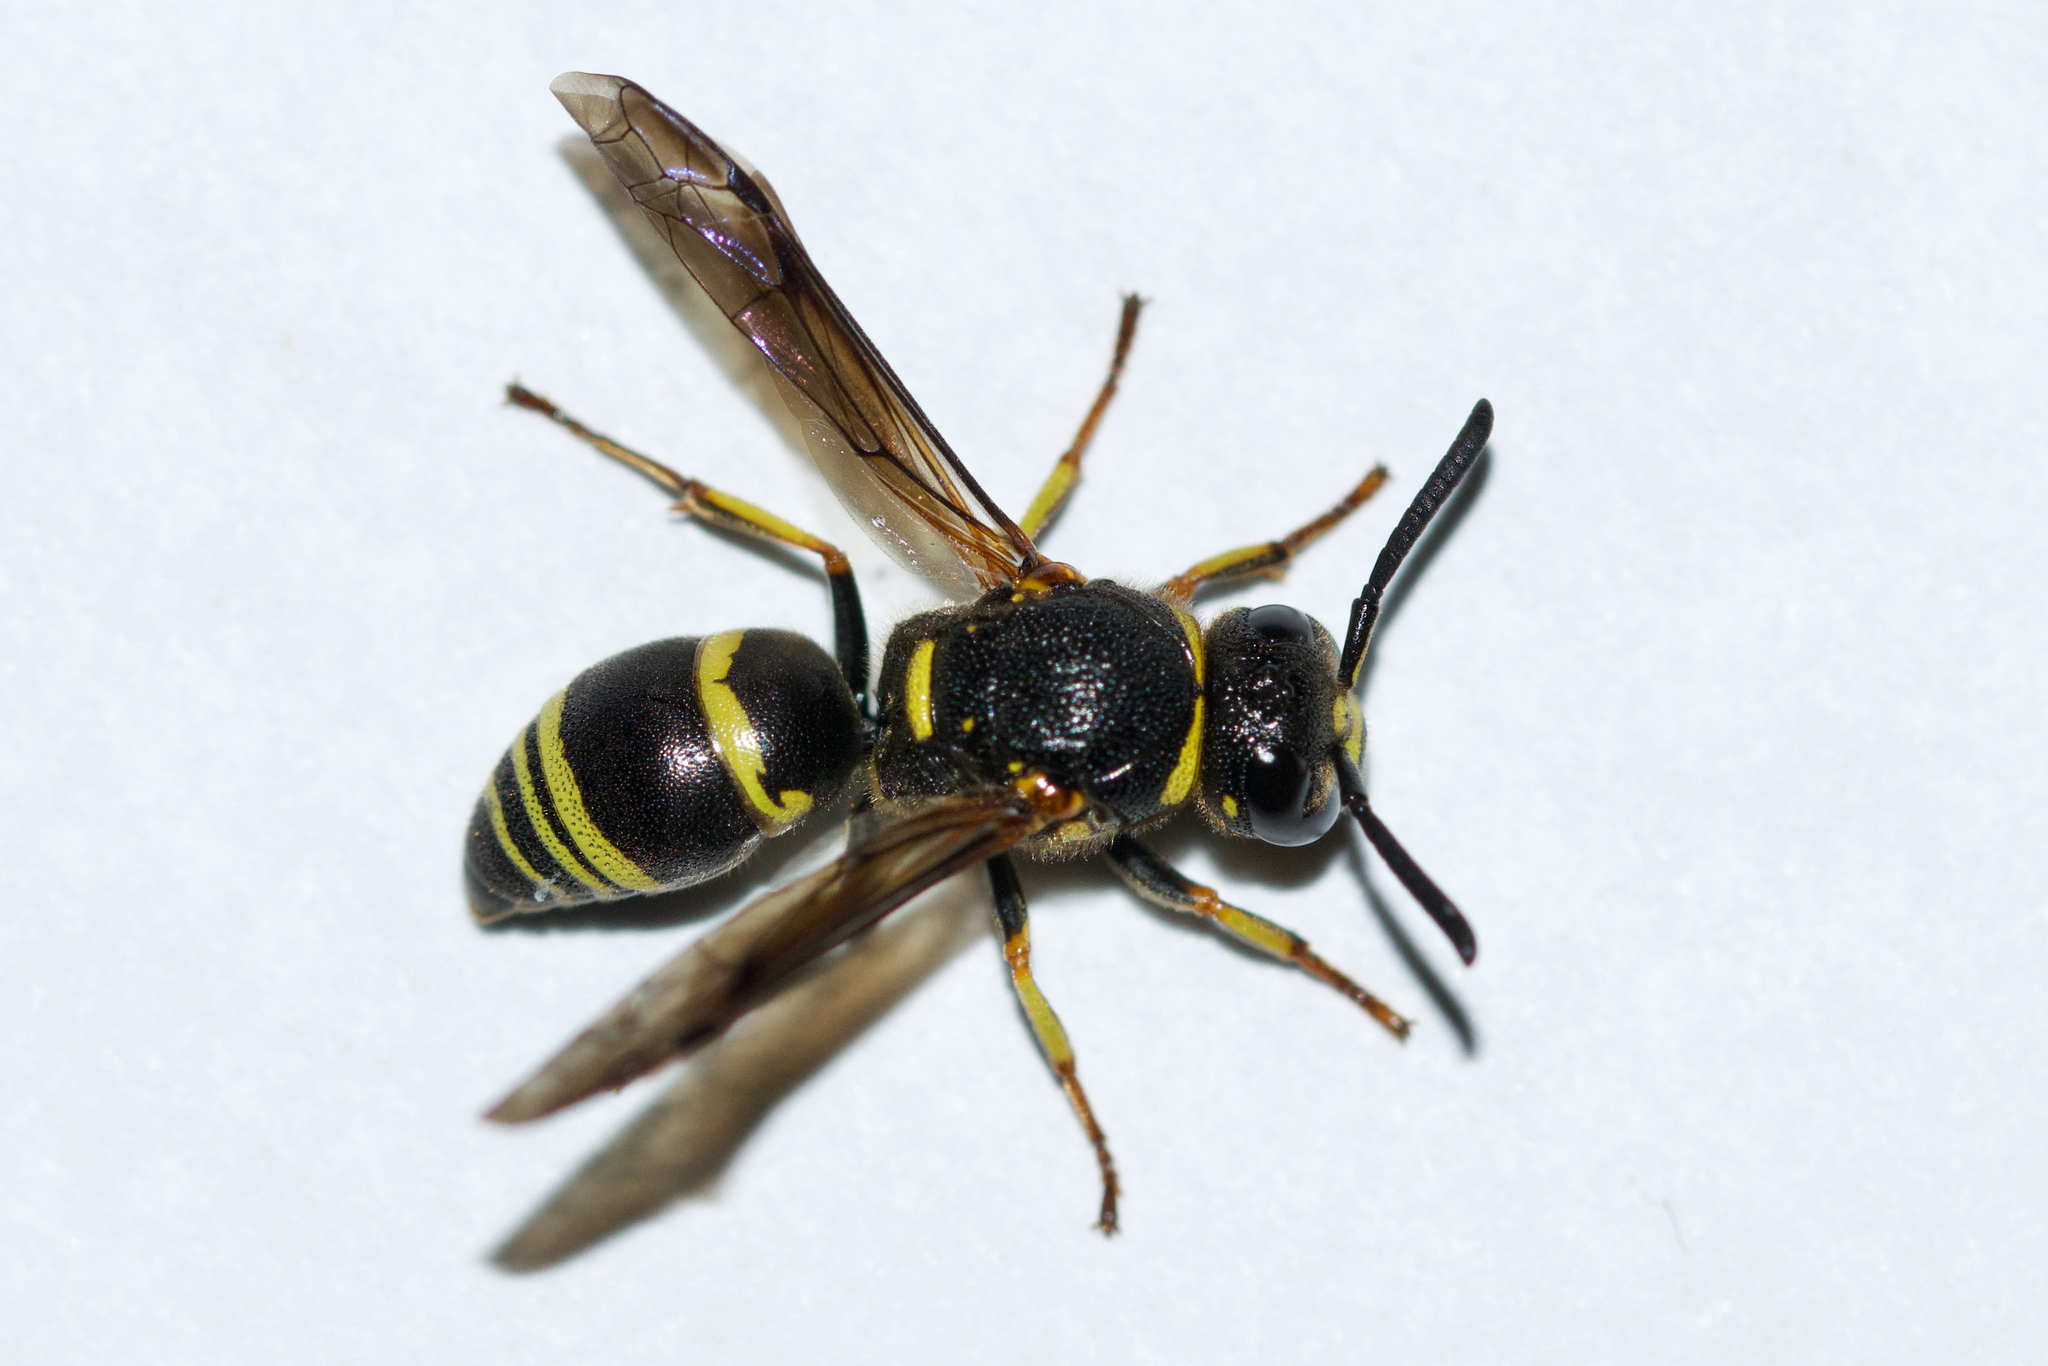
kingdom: Animalia
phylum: Arthropoda
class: Insecta
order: Hymenoptera
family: Eumenidae
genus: Euodynerus
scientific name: Euodynerus foraminatus
